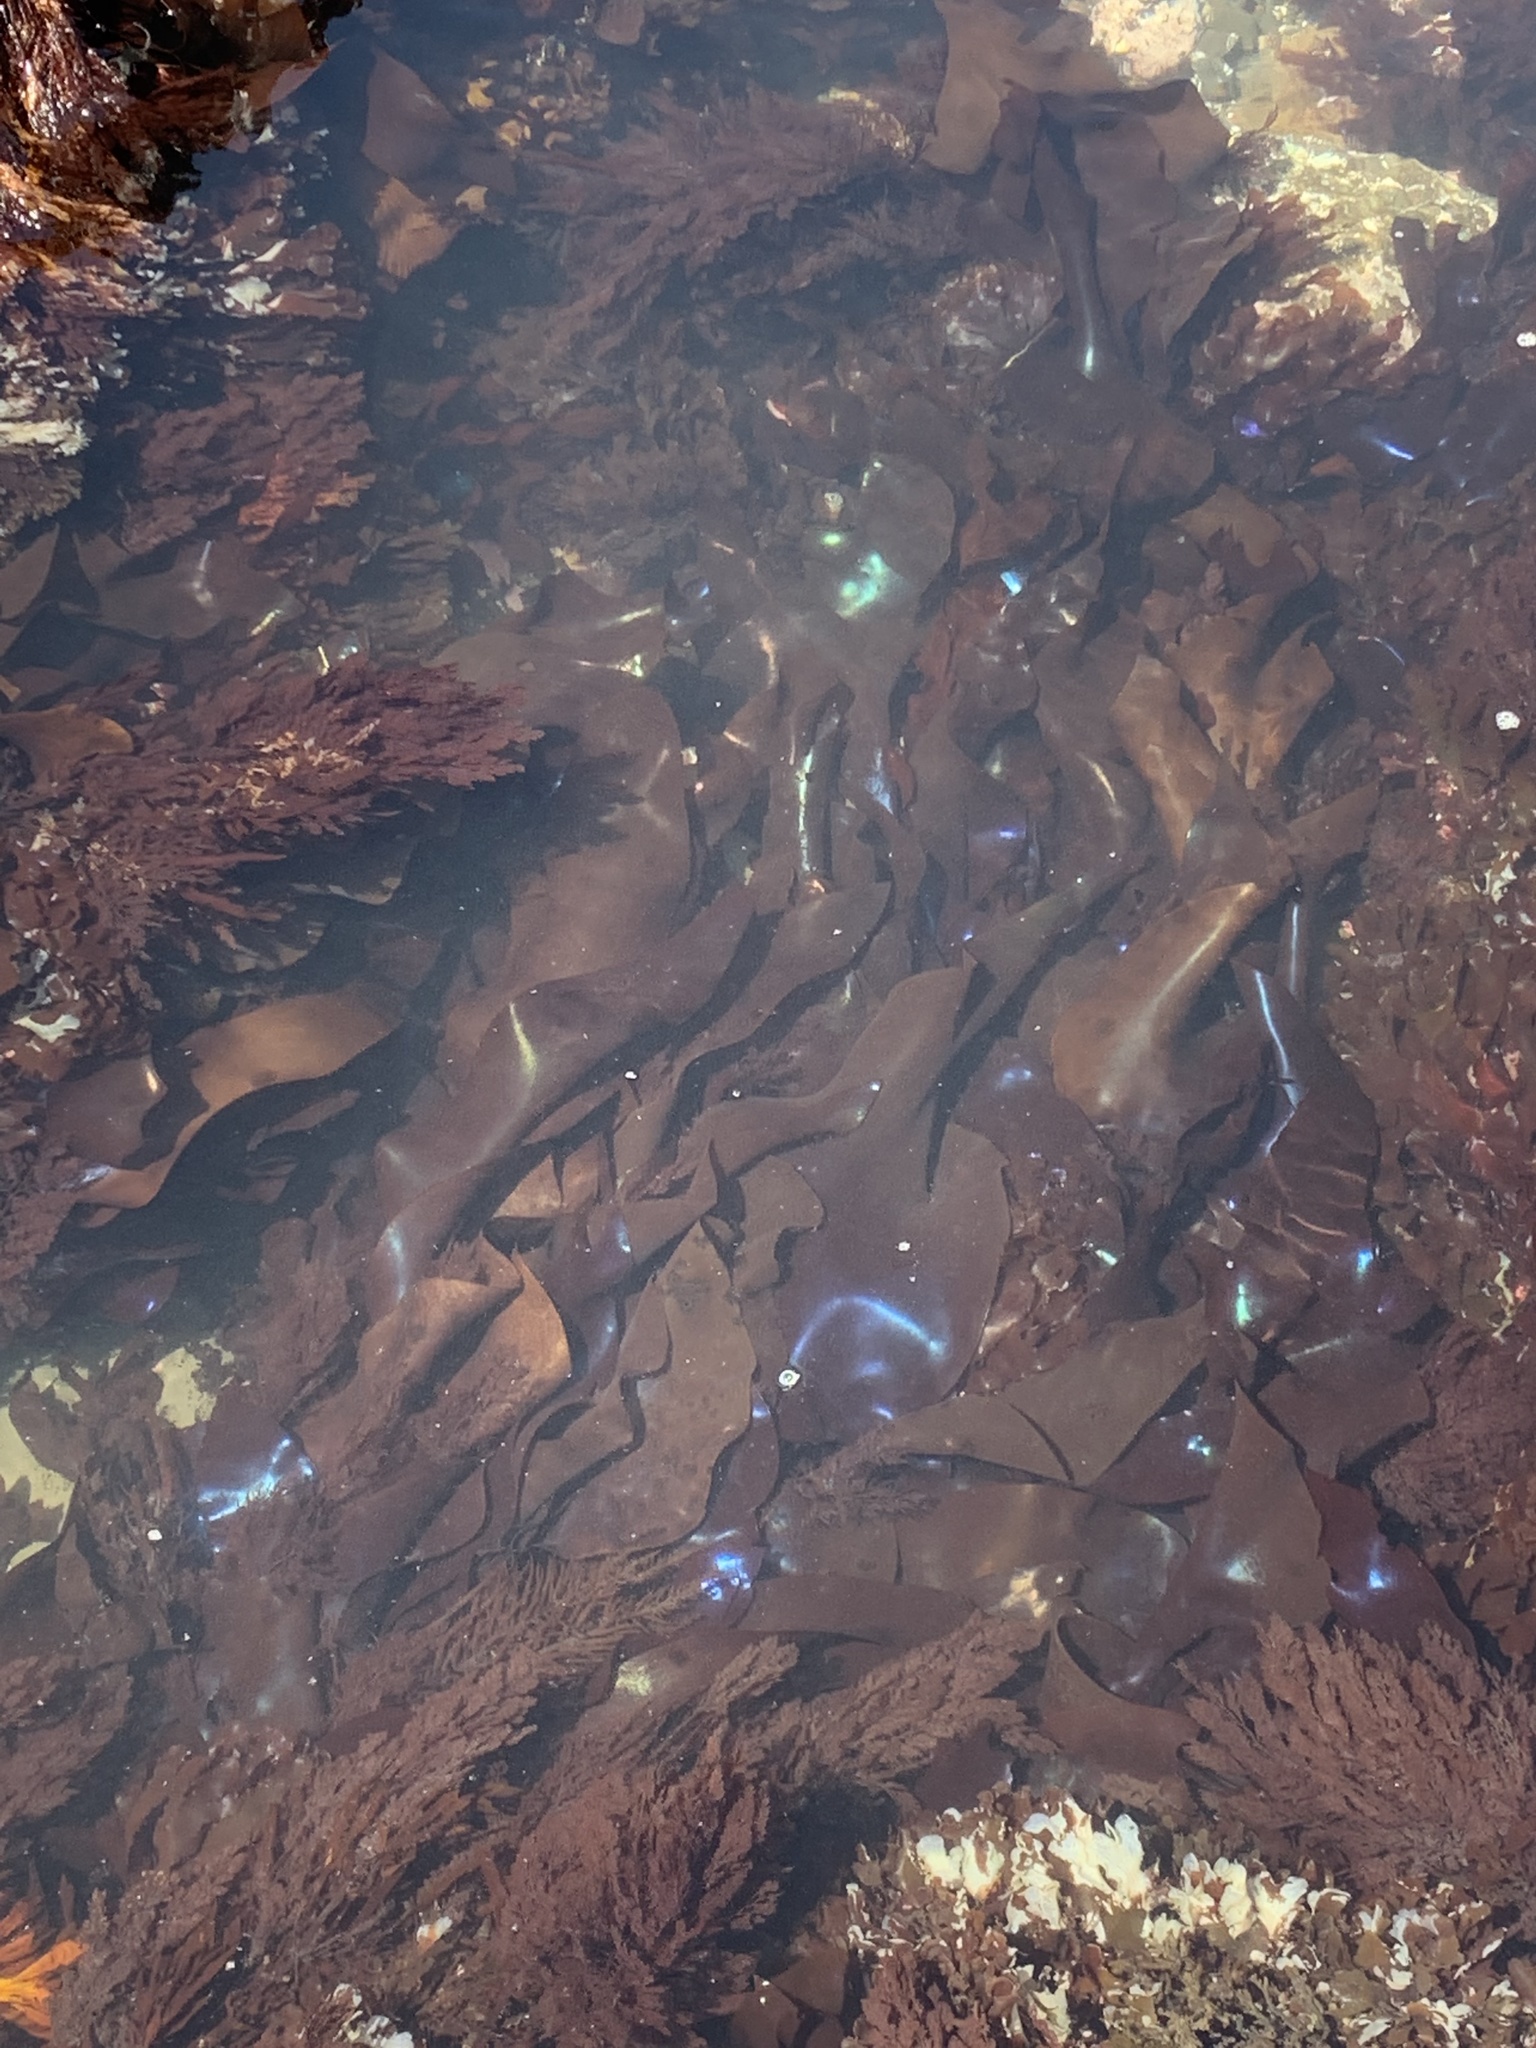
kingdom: Plantae
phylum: Rhodophyta
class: Florideophyceae
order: Gigartinales
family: Gigartinaceae
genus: Mazzaella
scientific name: Mazzaella splendens
